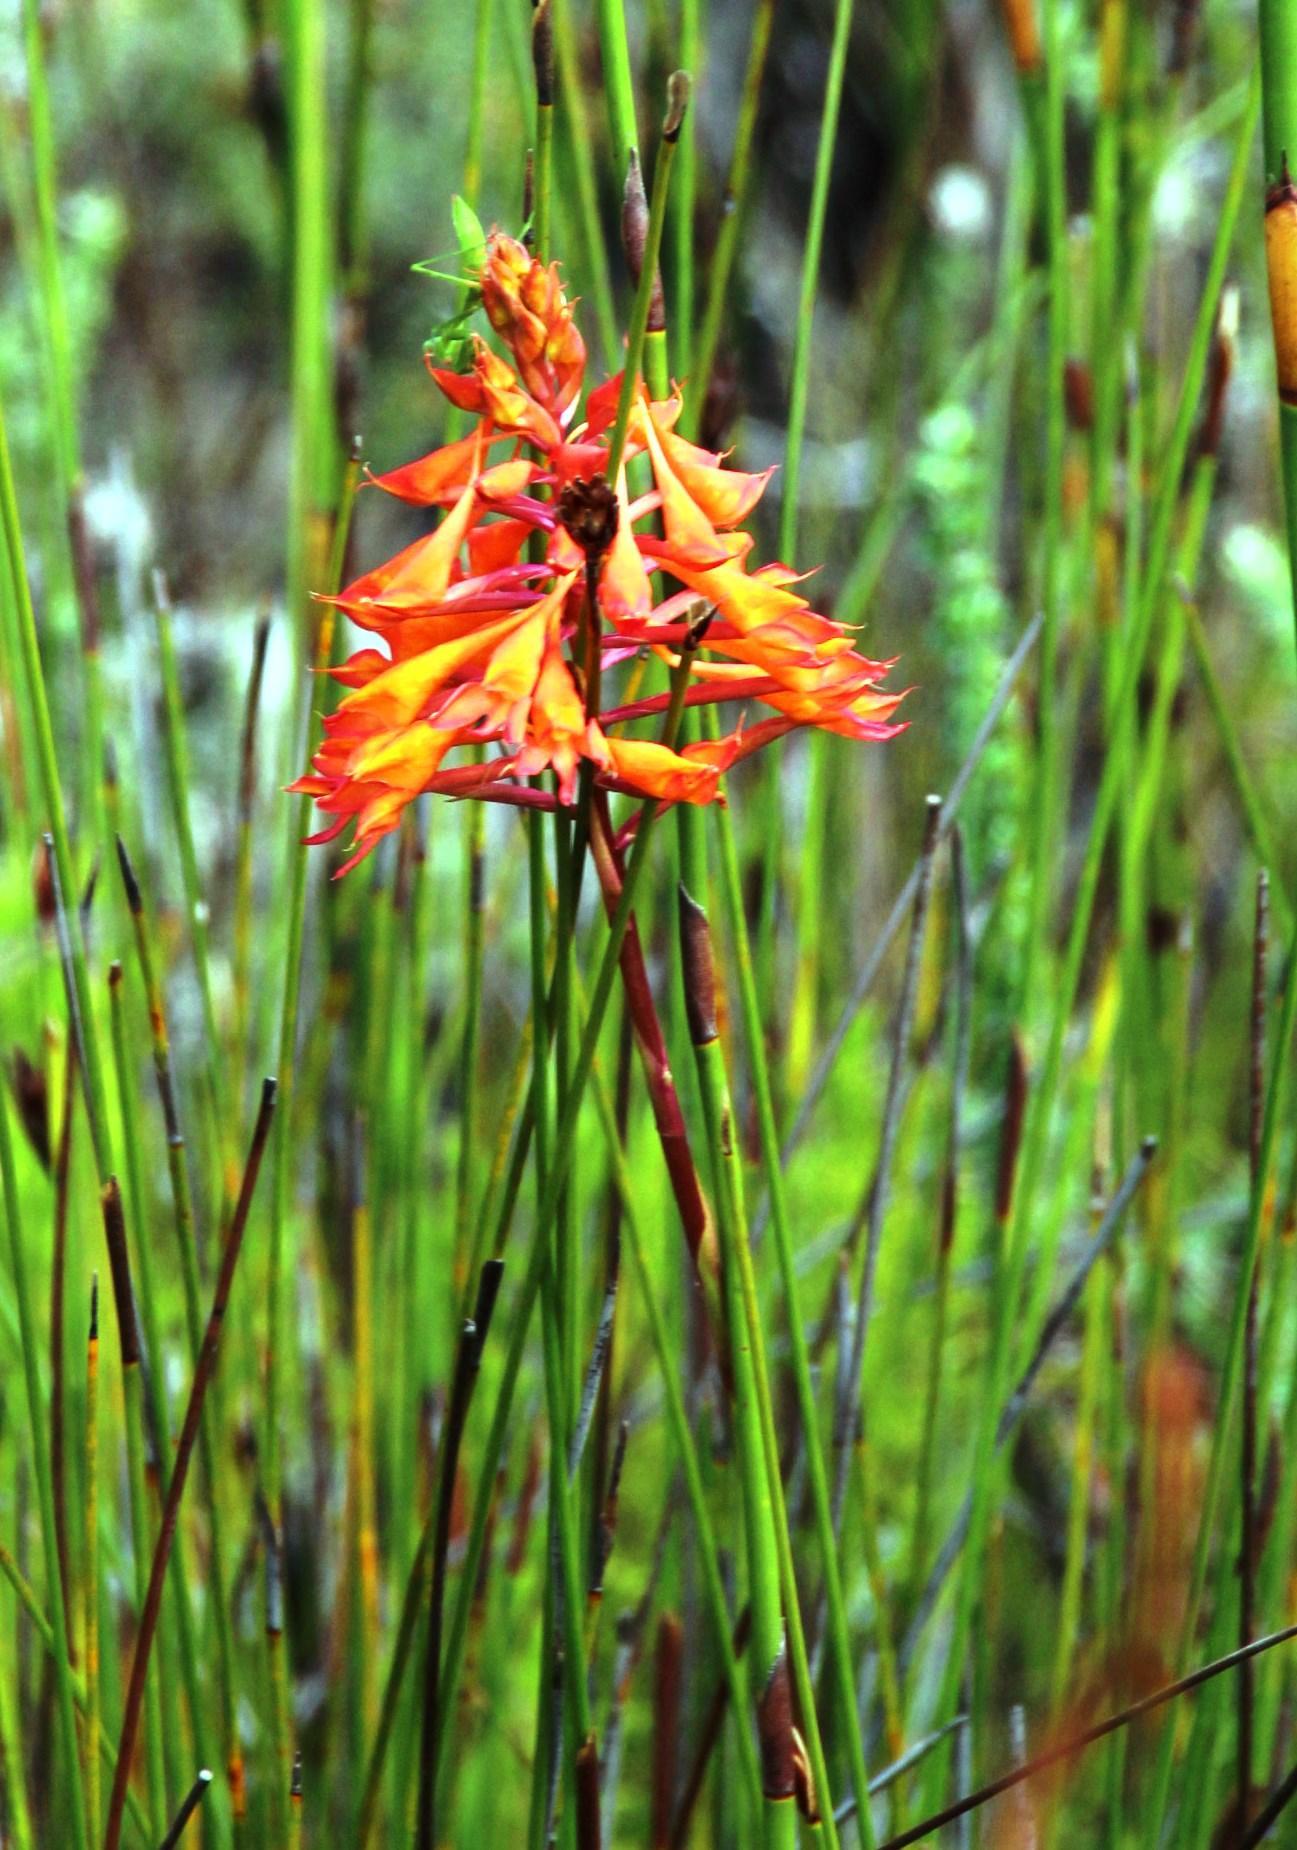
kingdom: Plantae
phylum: Tracheophyta
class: Liliopsida
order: Asparagales
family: Orchidaceae
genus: Disa
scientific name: Disa ferruginea
